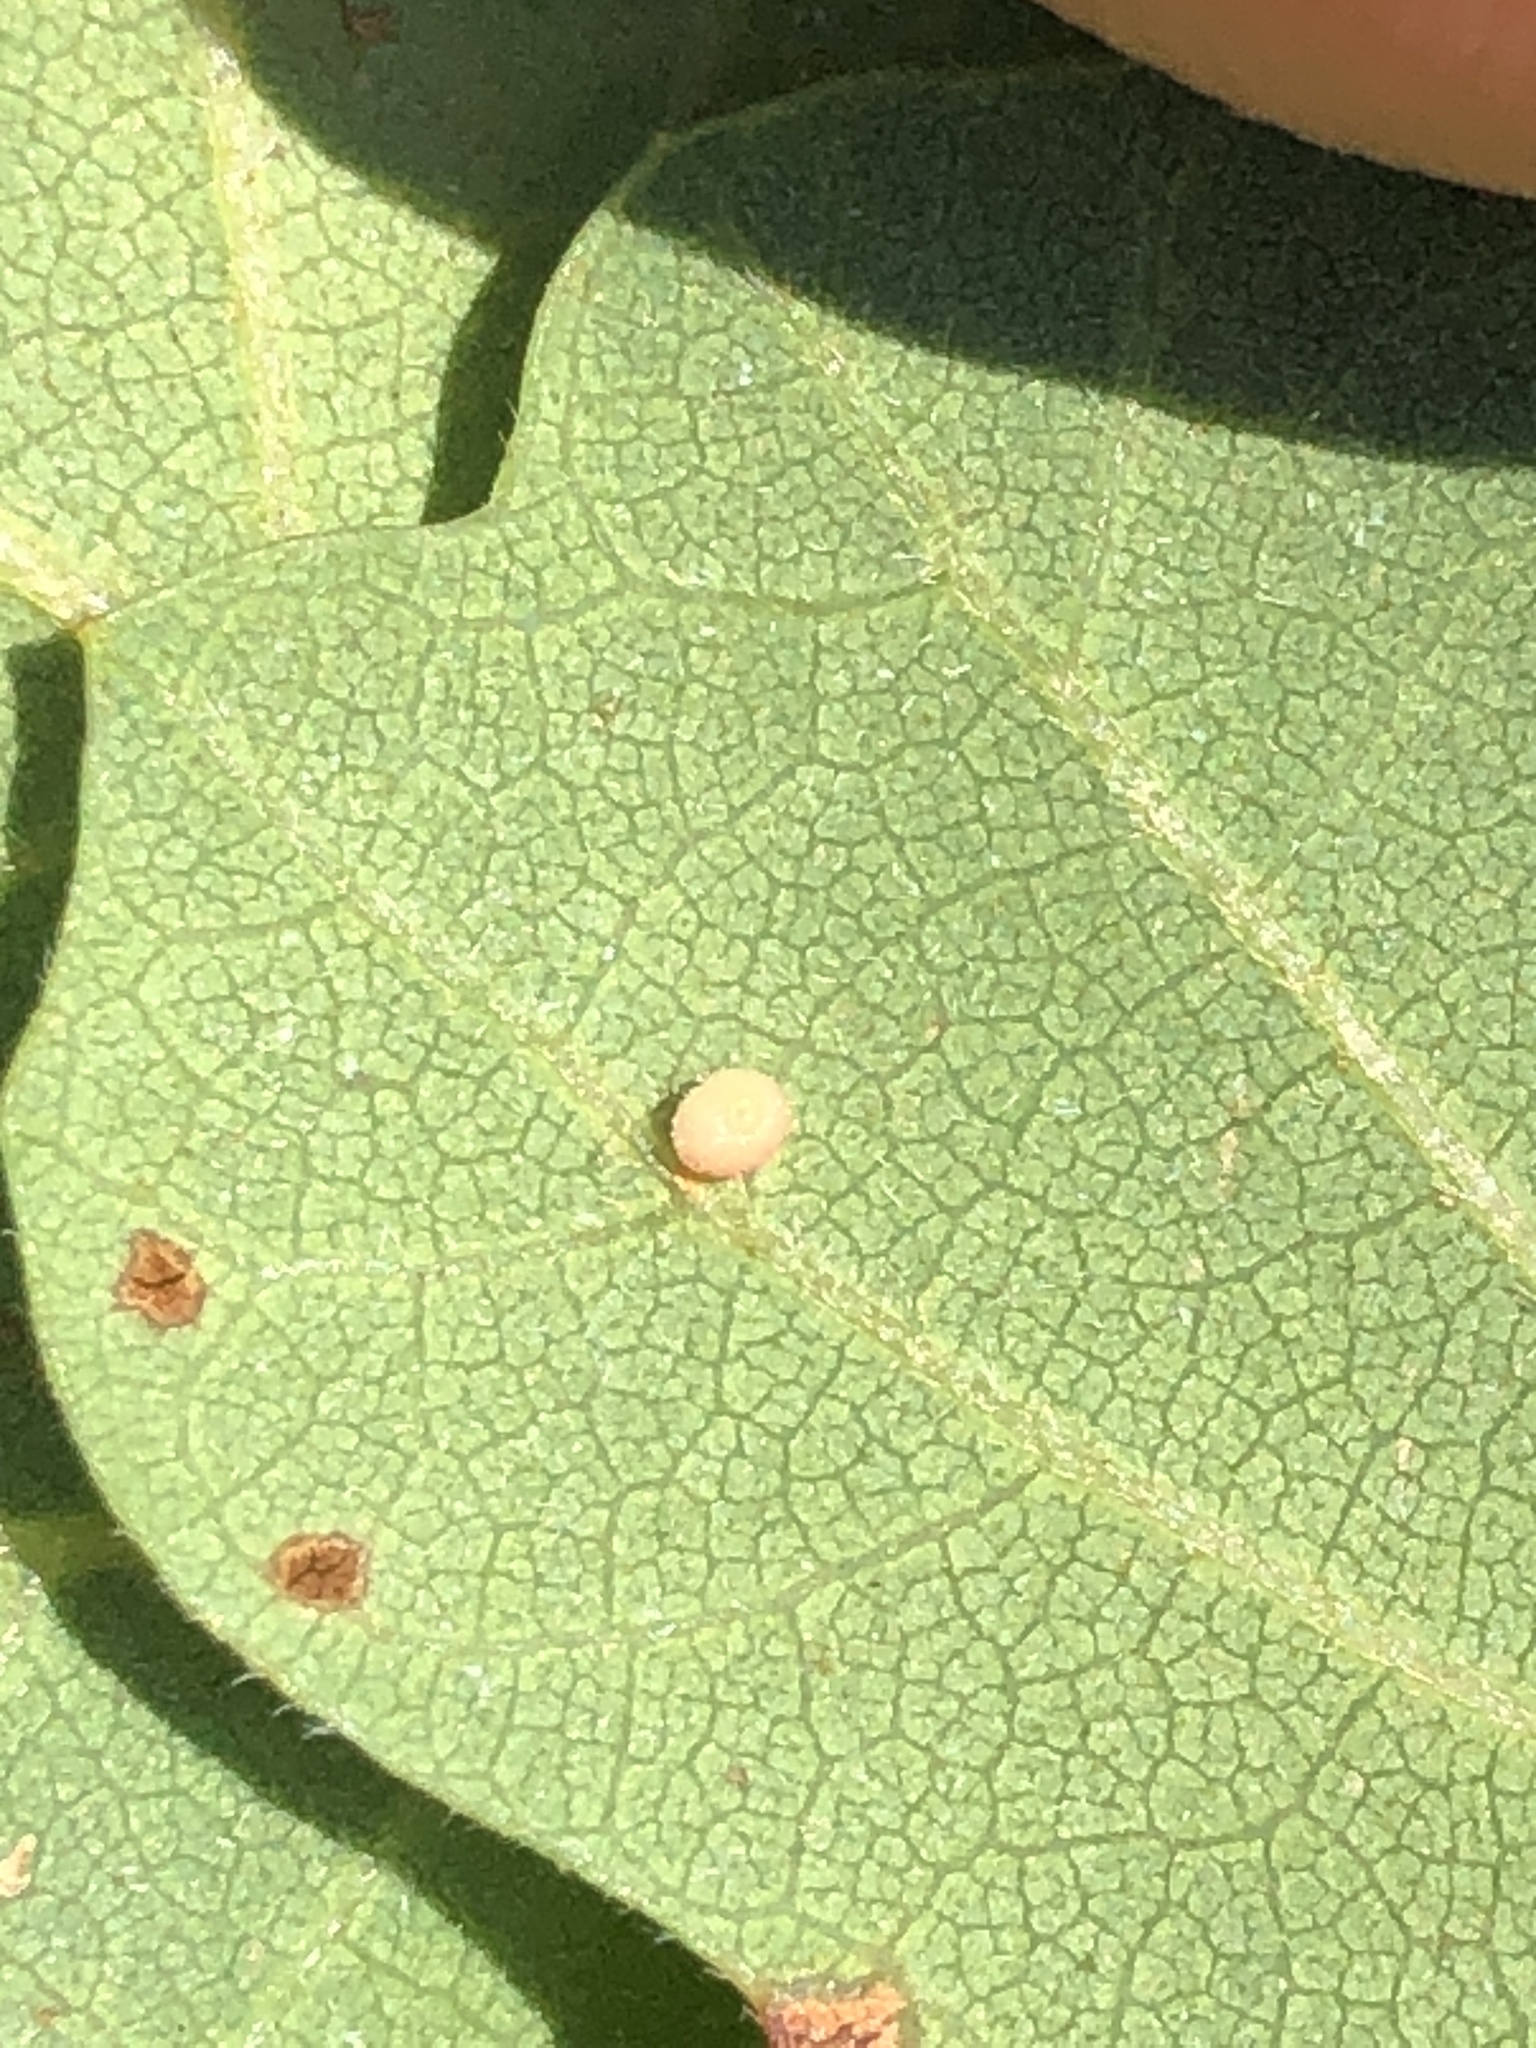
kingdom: Animalia
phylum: Arthropoda
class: Insecta
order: Hymenoptera
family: Cynipidae
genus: Neuroterus
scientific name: Neuroterus saltarius
